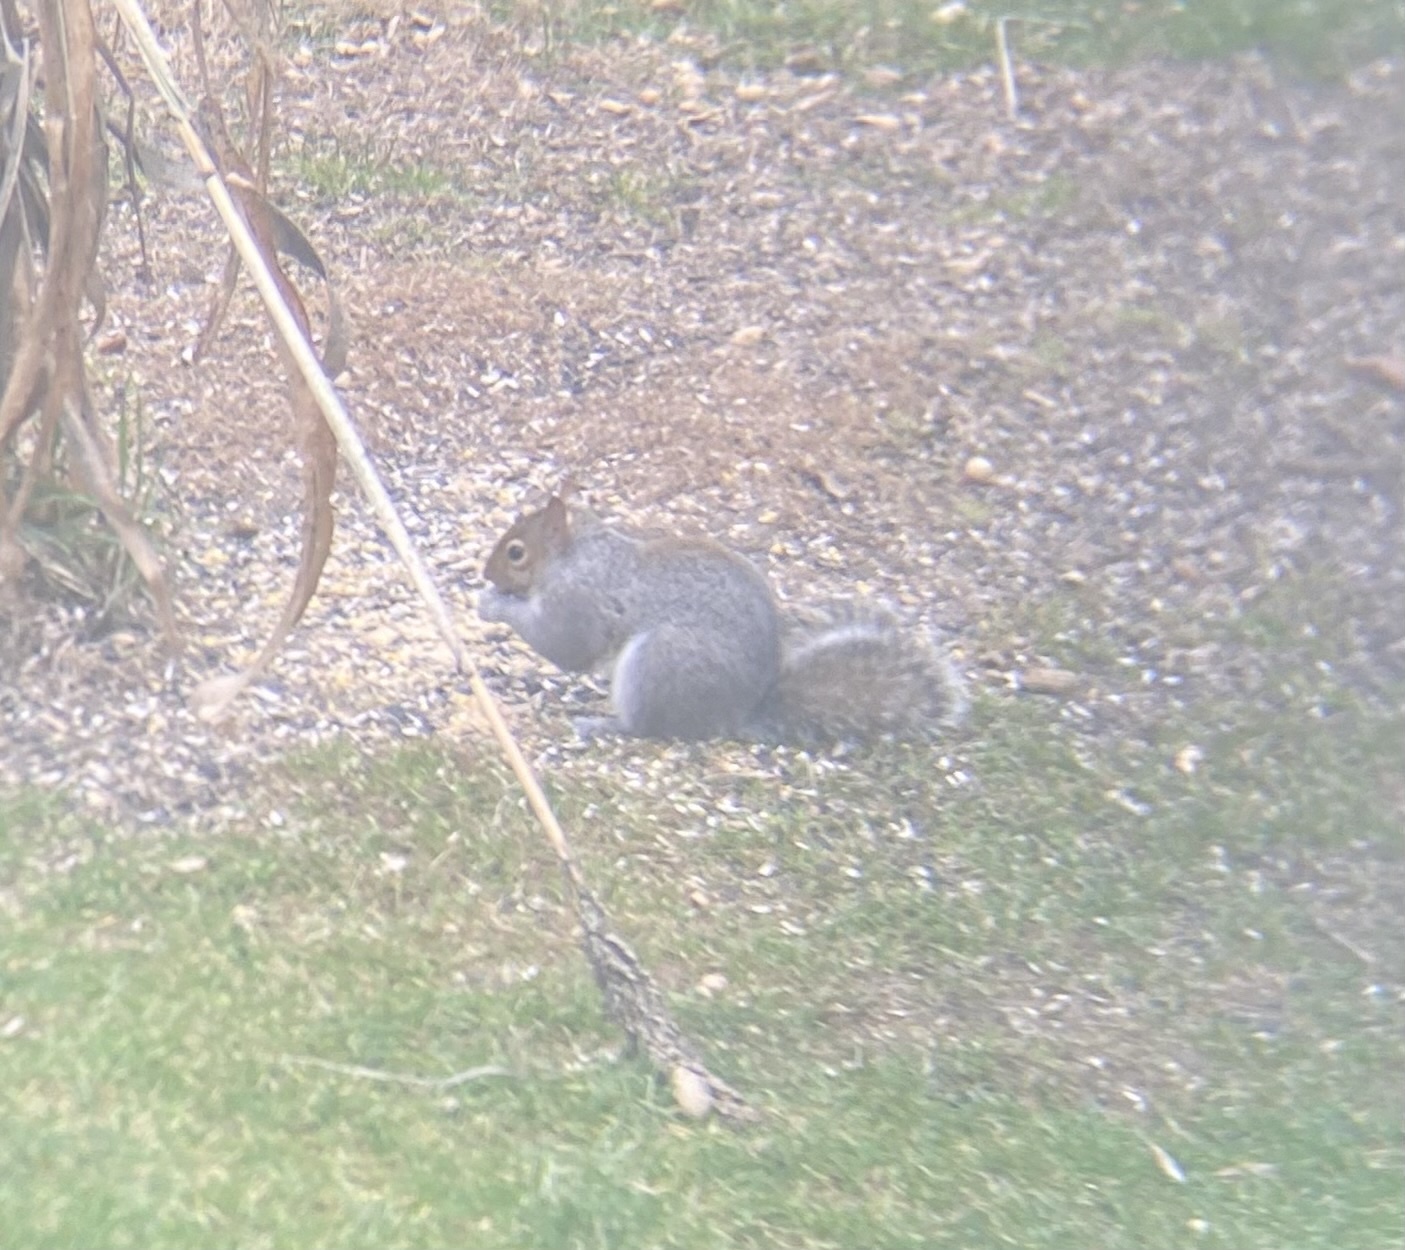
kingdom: Animalia
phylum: Chordata
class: Mammalia
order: Rodentia
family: Sciuridae
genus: Sciurus
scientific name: Sciurus carolinensis
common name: Eastern gray squirrel
